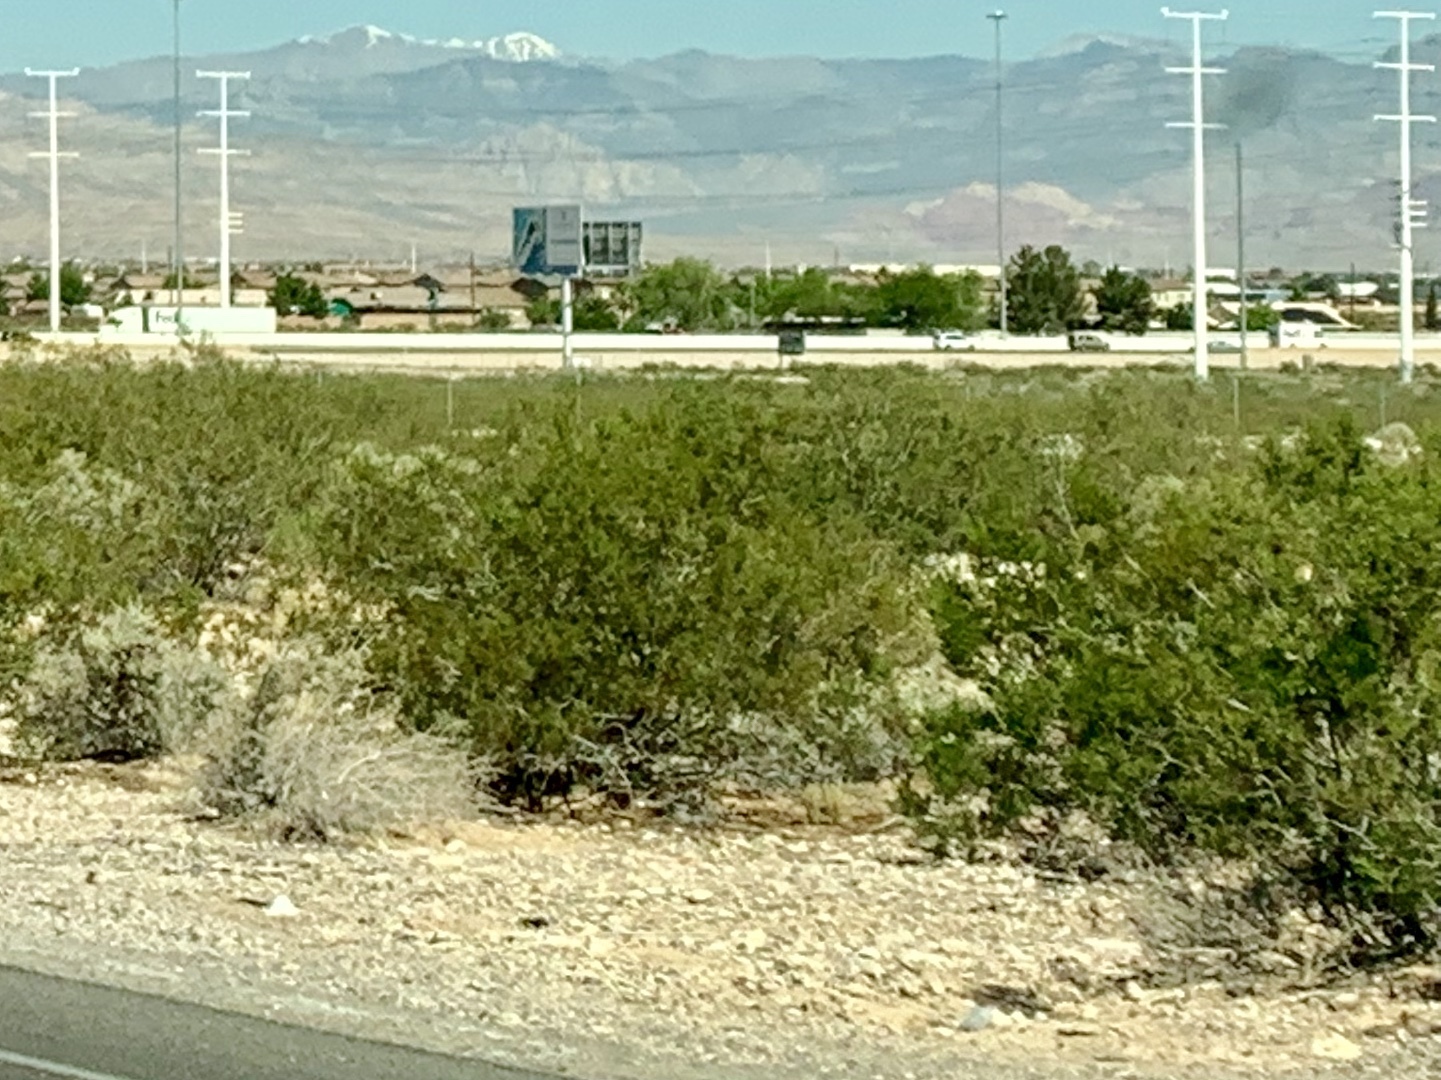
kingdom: Plantae
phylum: Tracheophyta
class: Magnoliopsida
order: Zygophyllales
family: Zygophyllaceae
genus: Larrea
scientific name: Larrea tridentata
